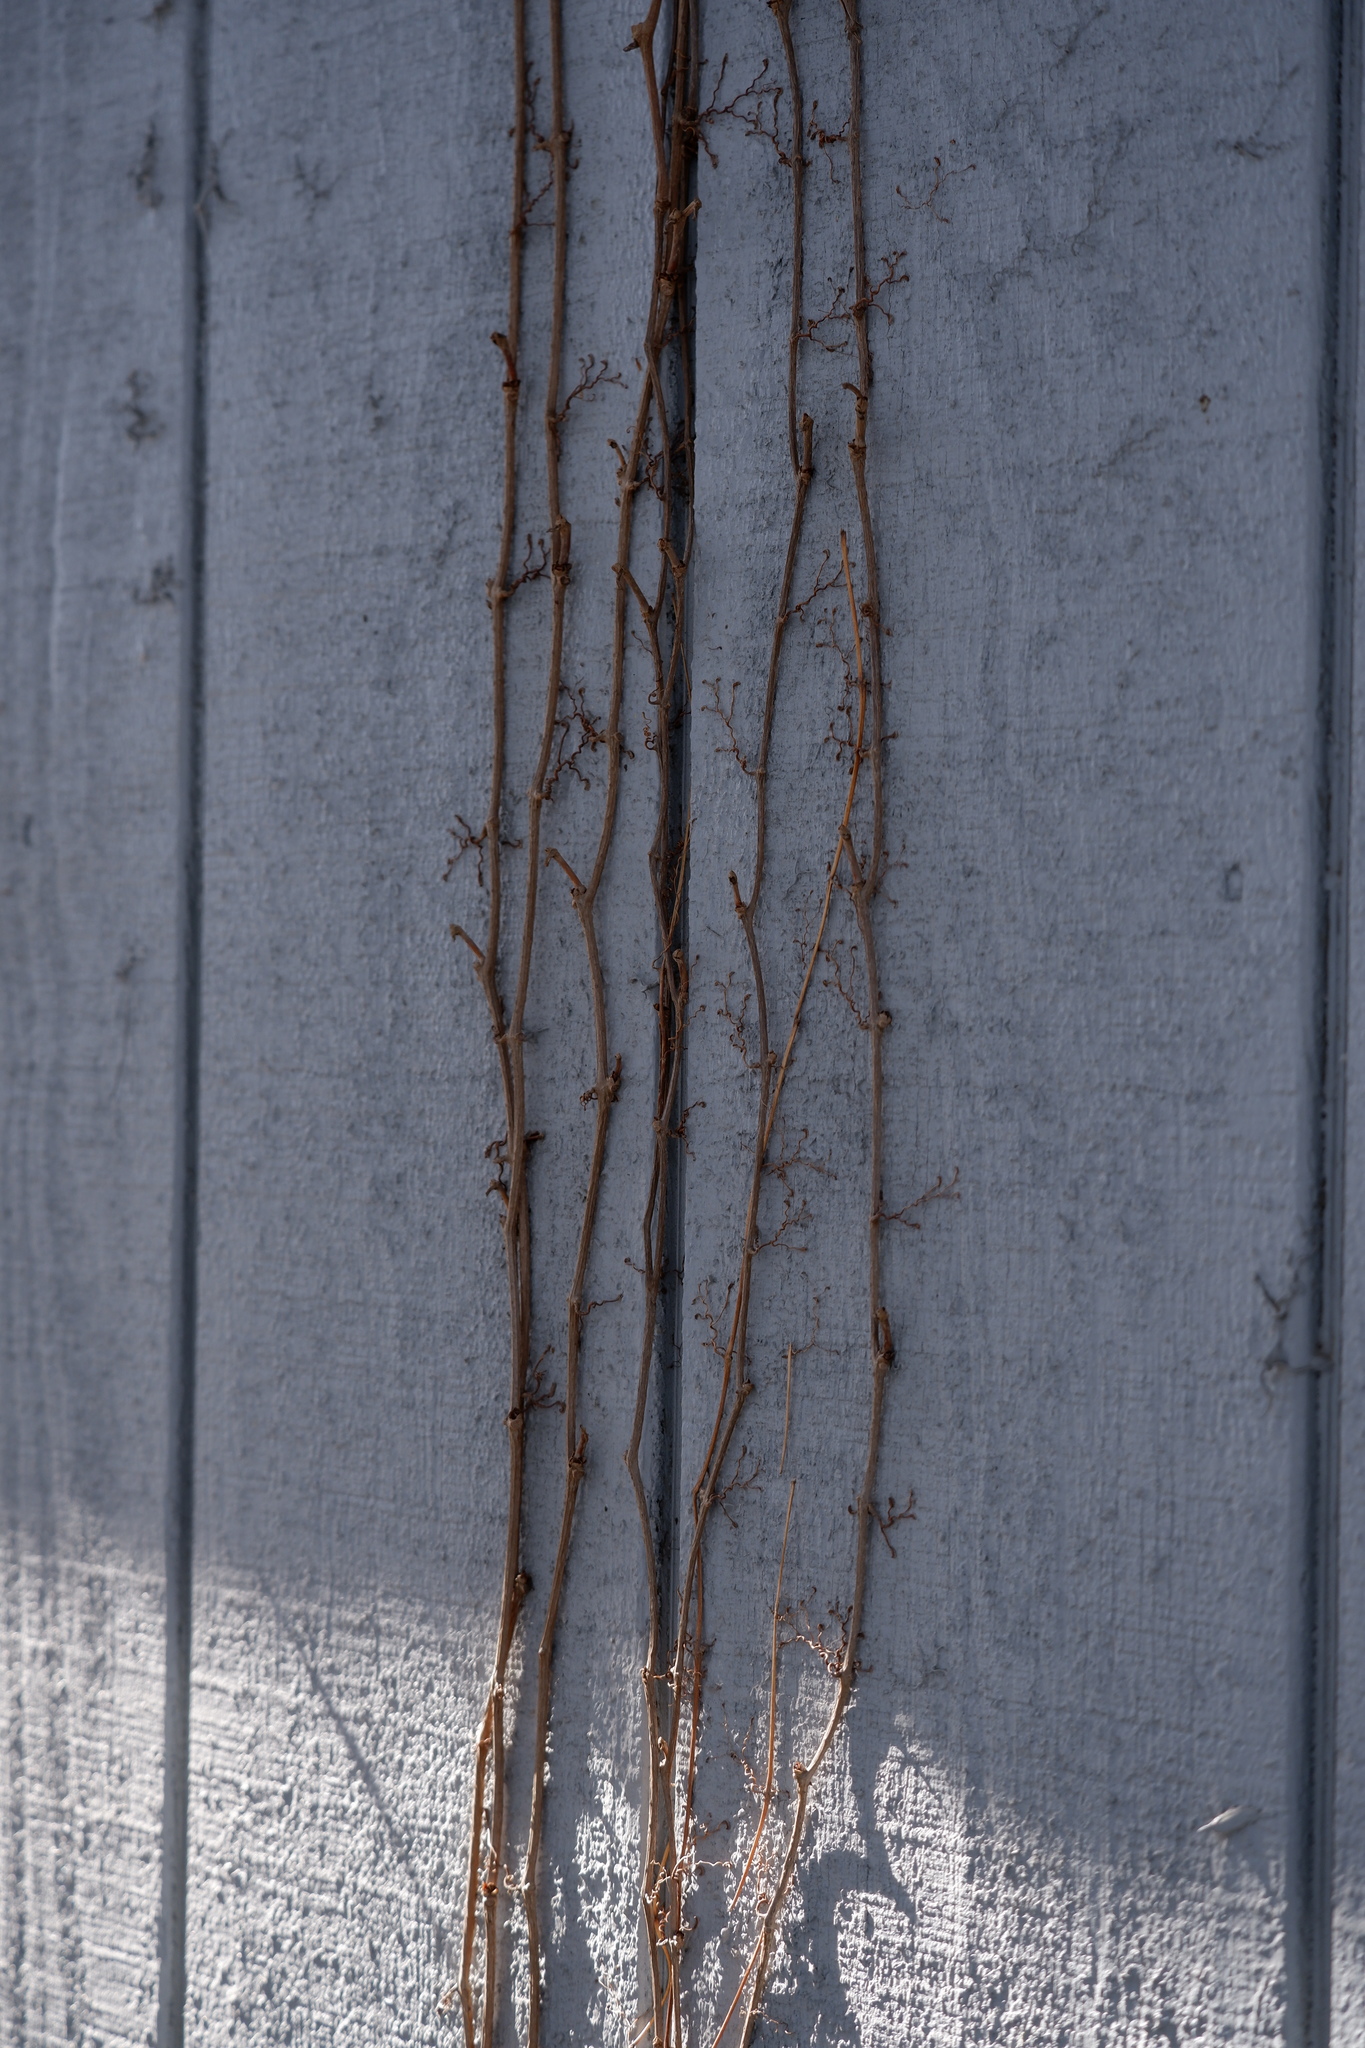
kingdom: Plantae
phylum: Tracheophyta
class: Magnoliopsida
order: Vitales
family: Vitaceae
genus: Parthenocissus
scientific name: Parthenocissus quinquefolia
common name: Virginia-creeper
